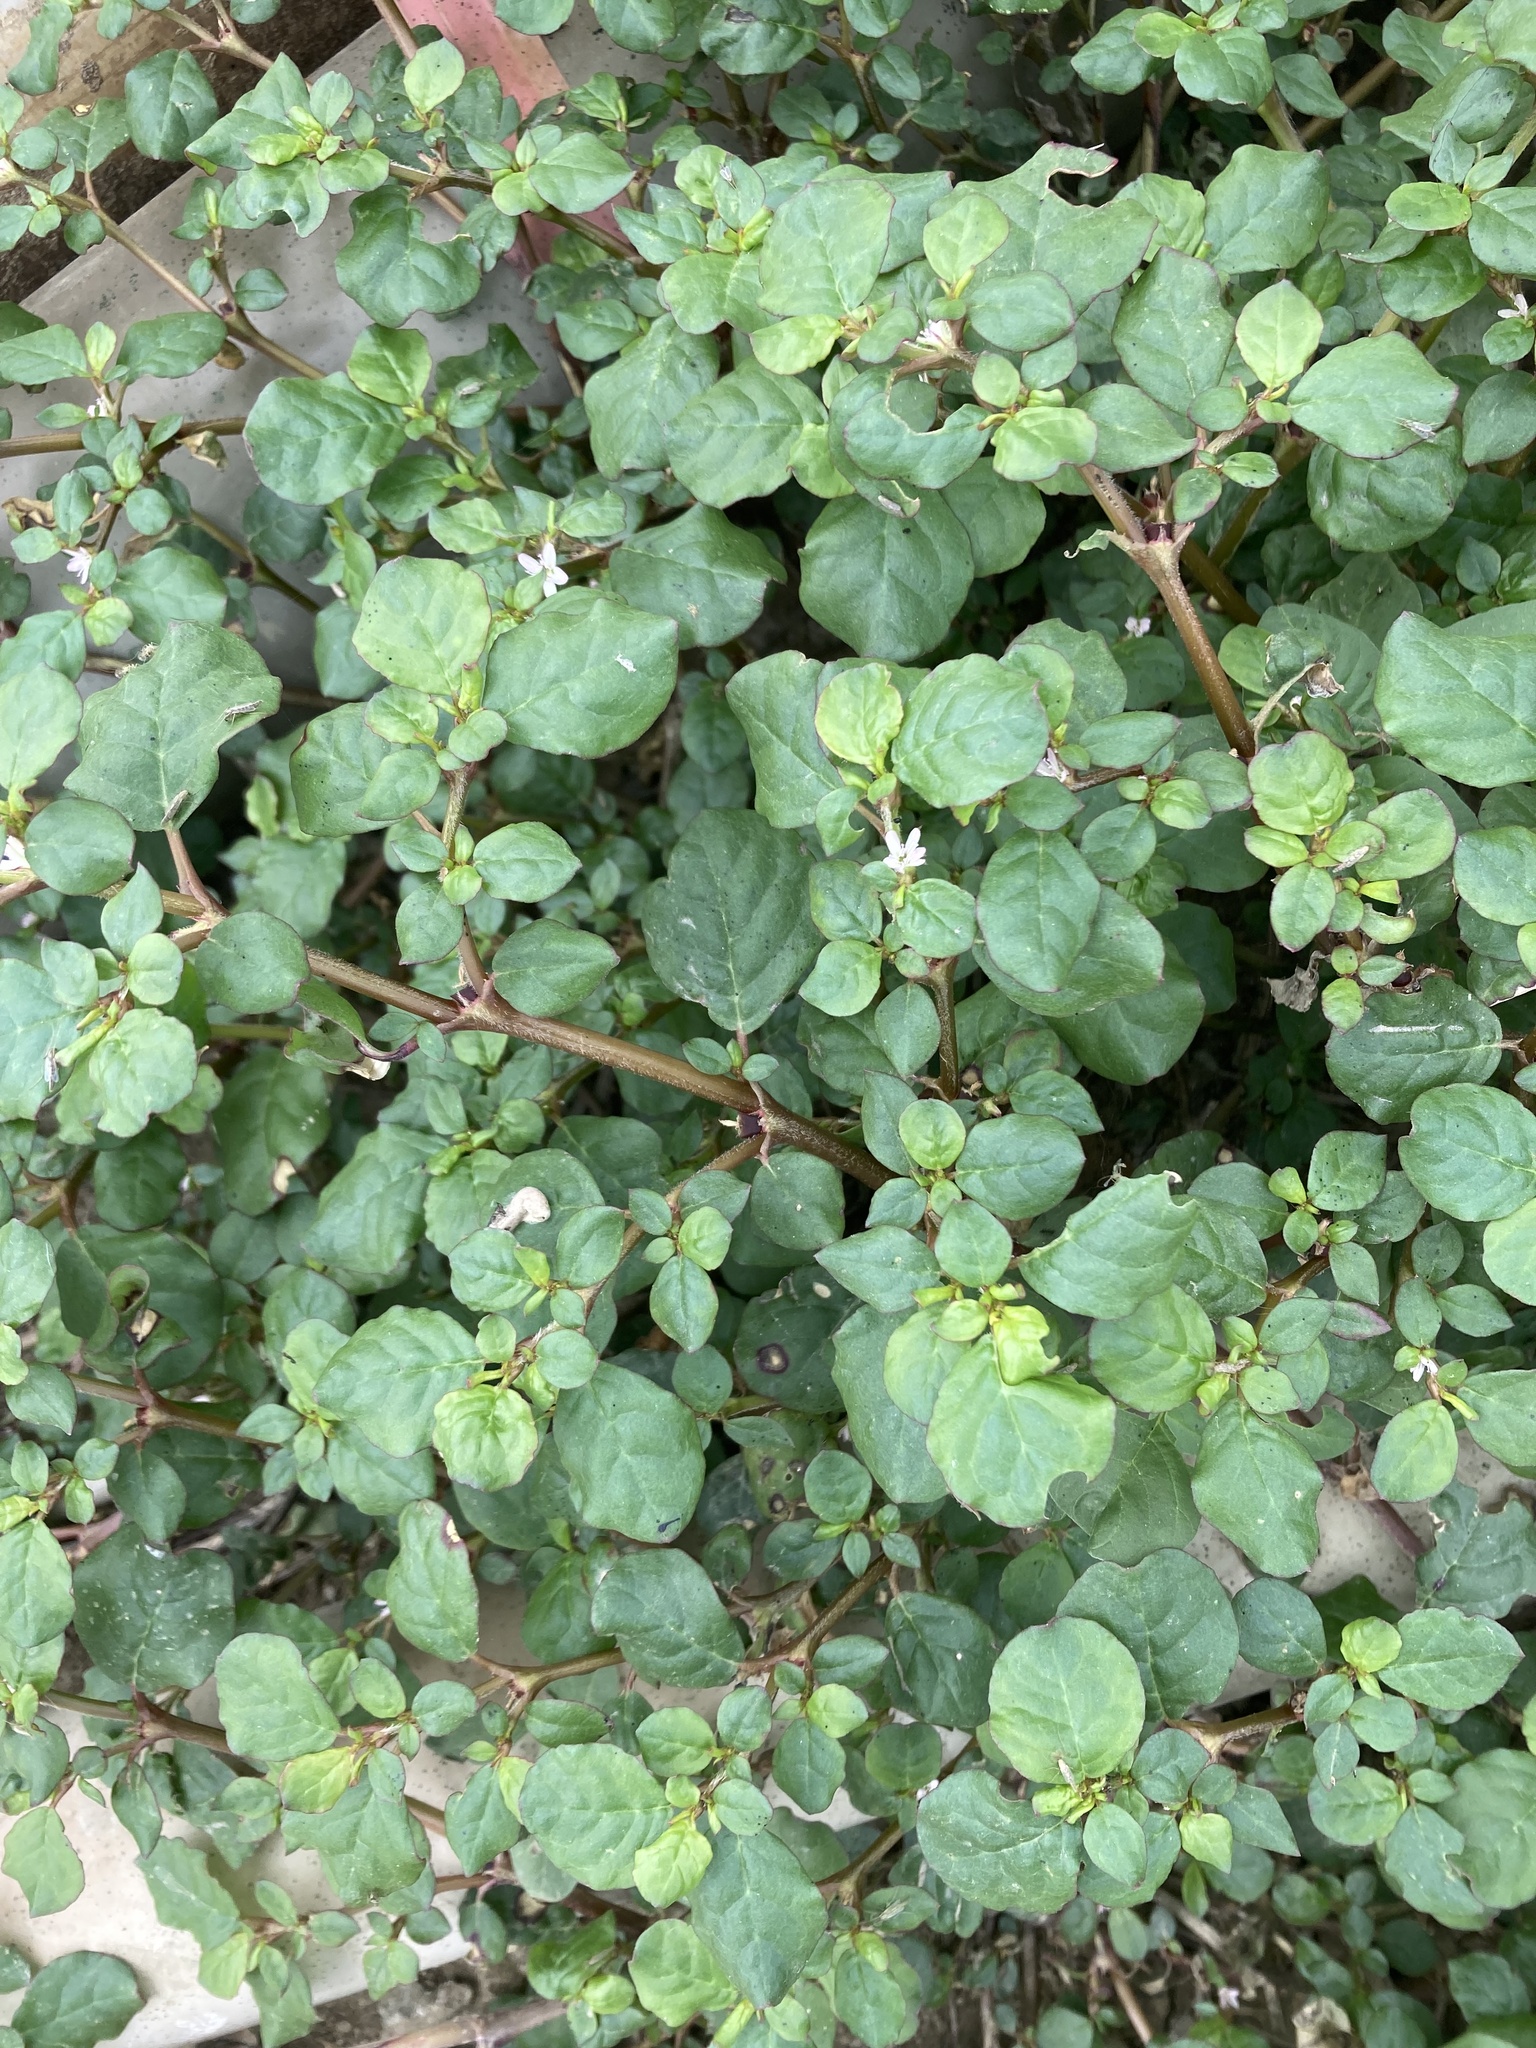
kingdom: Plantae
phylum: Tracheophyta
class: Magnoliopsida
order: Caryophyllales
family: Aizoaceae
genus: Trianthema
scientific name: Trianthema portulacastrum
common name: Desert horsepurslane
